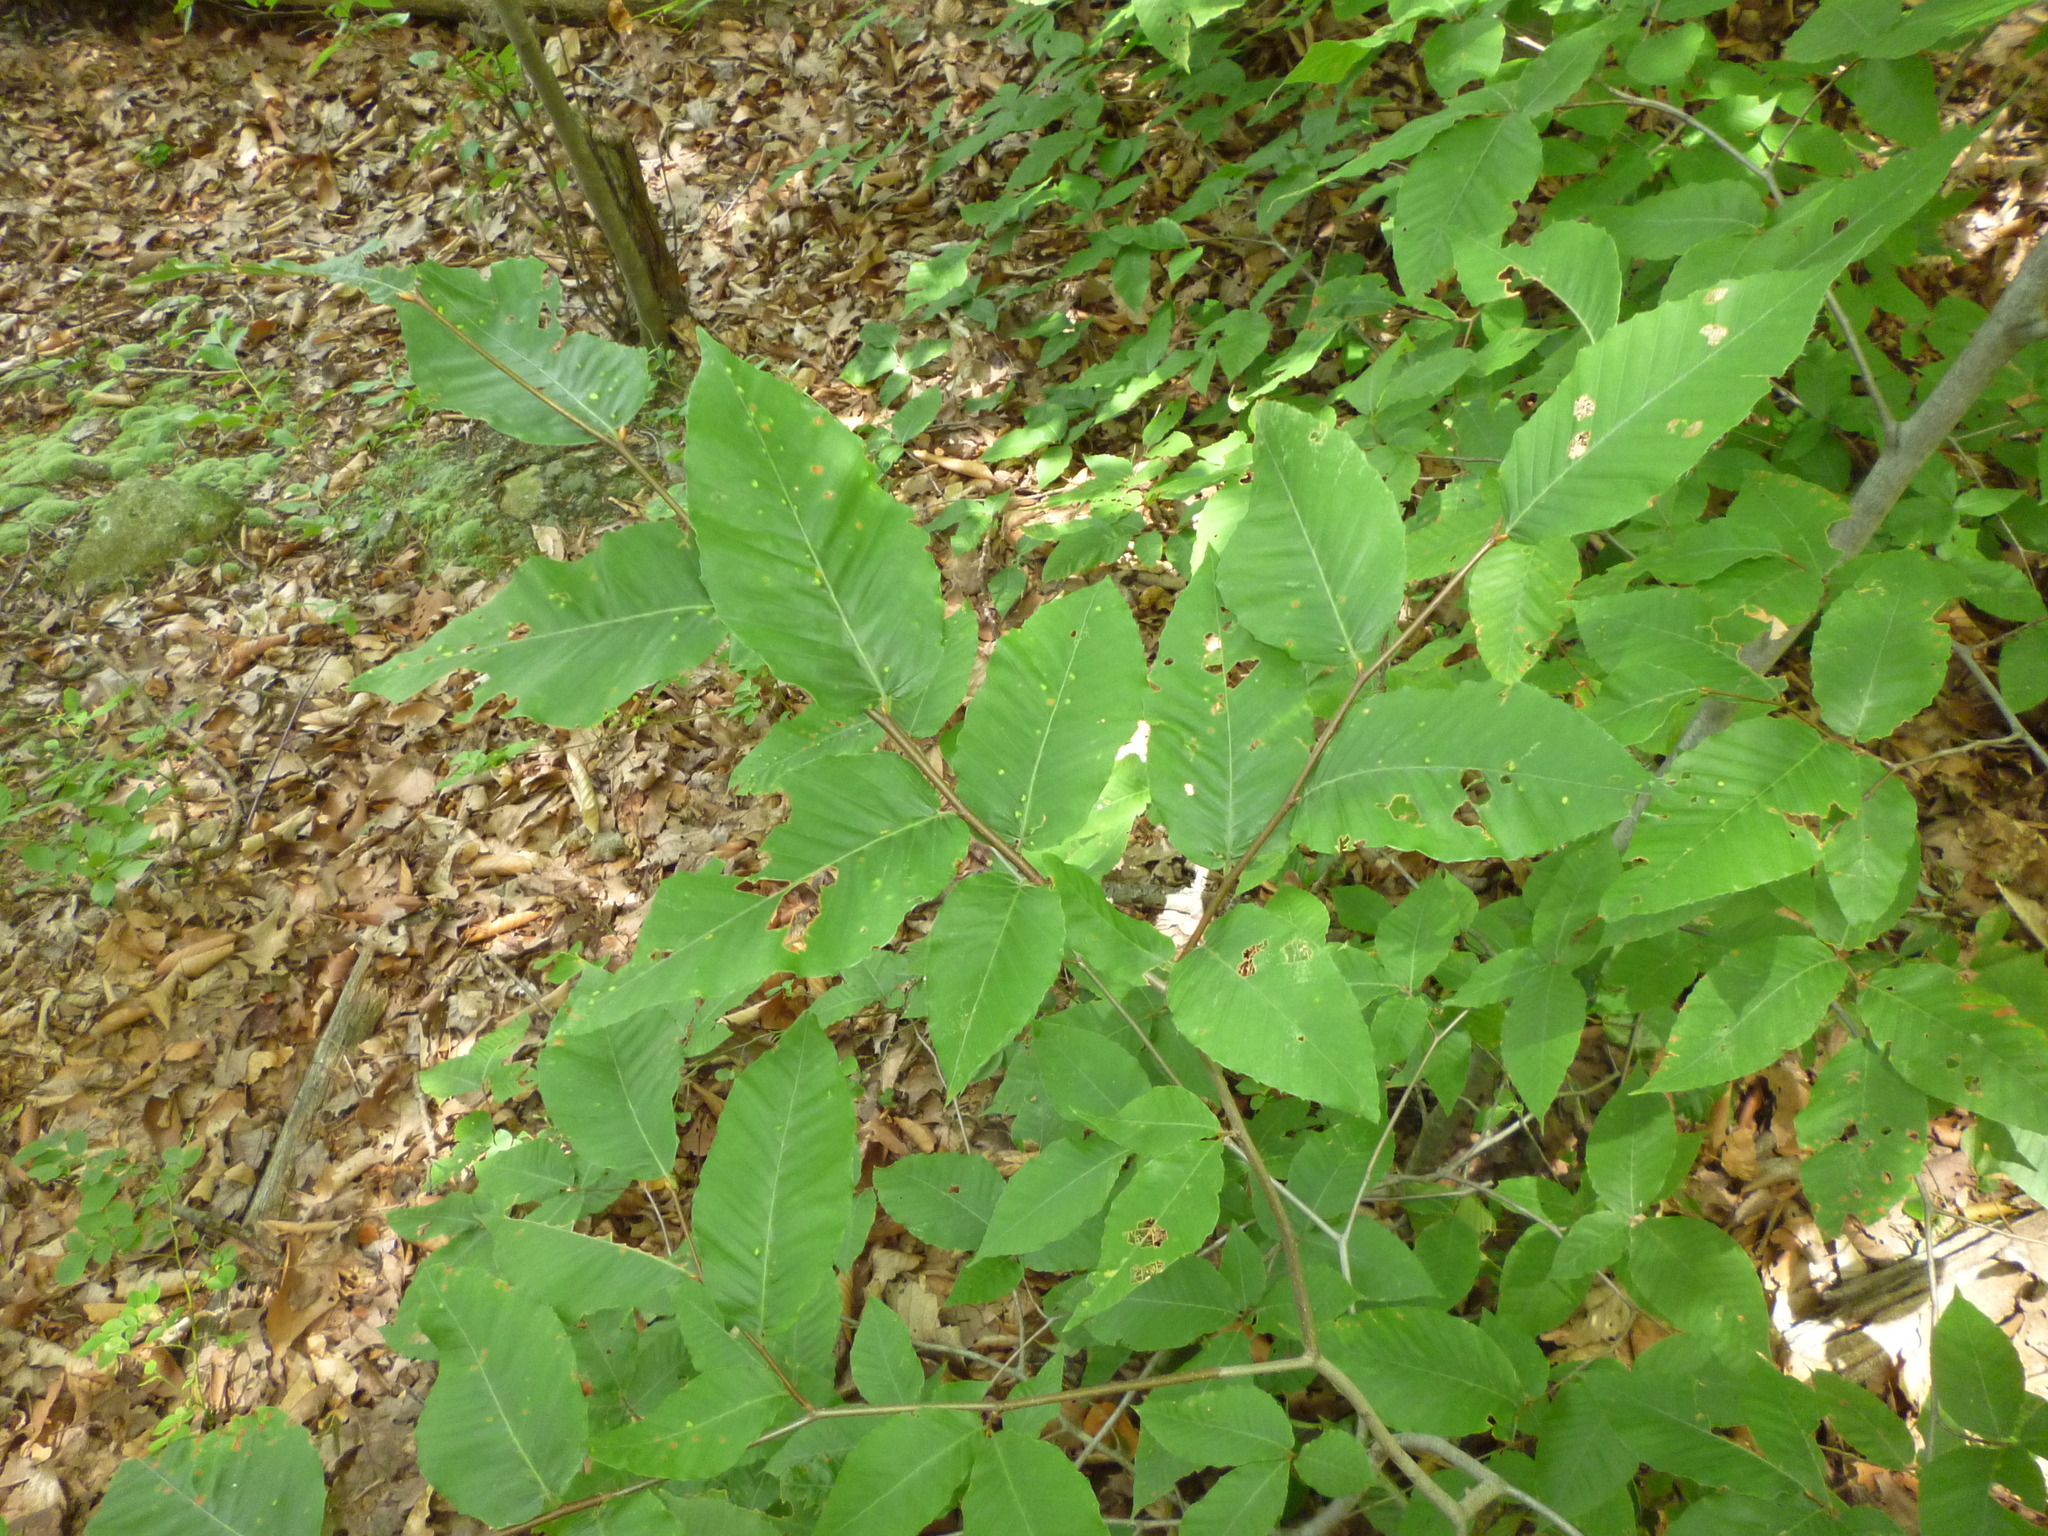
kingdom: Plantae
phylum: Tracheophyta
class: Magnoliopsida
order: Fagales
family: Fagaceae
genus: Fagus
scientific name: Fagus grandifolia
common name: American beech
